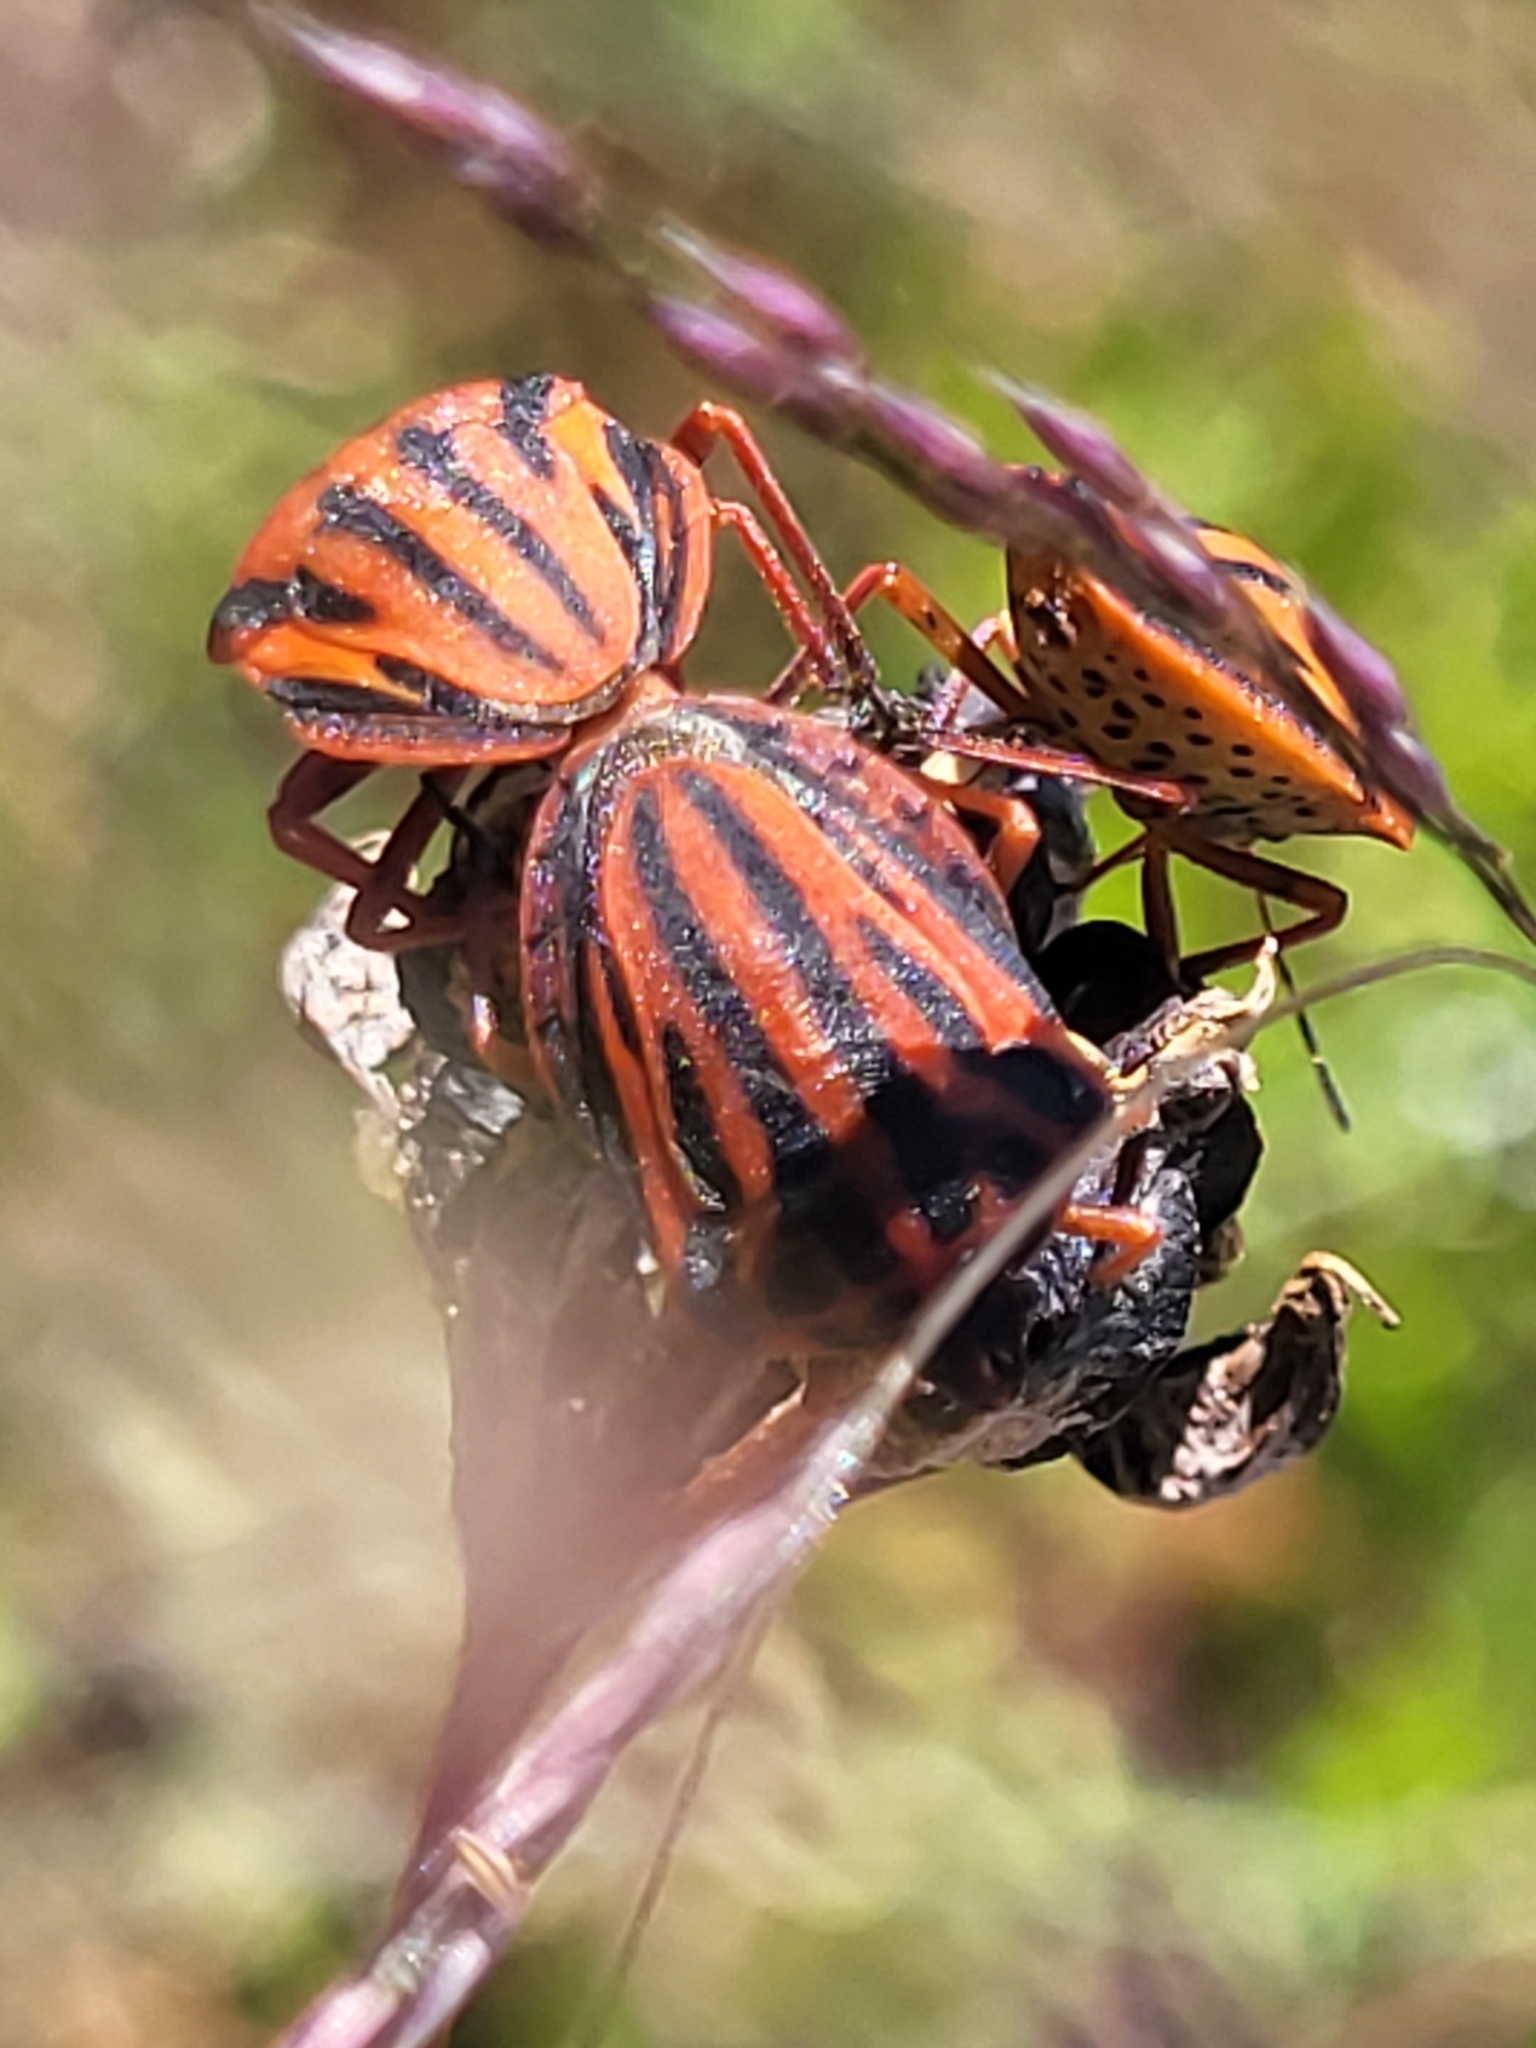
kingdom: Animalia
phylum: Arthropoda
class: Insecta
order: Hemiptera
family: Pentatomidae
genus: Graphosoma
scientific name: Graphosoma semipunctatum
